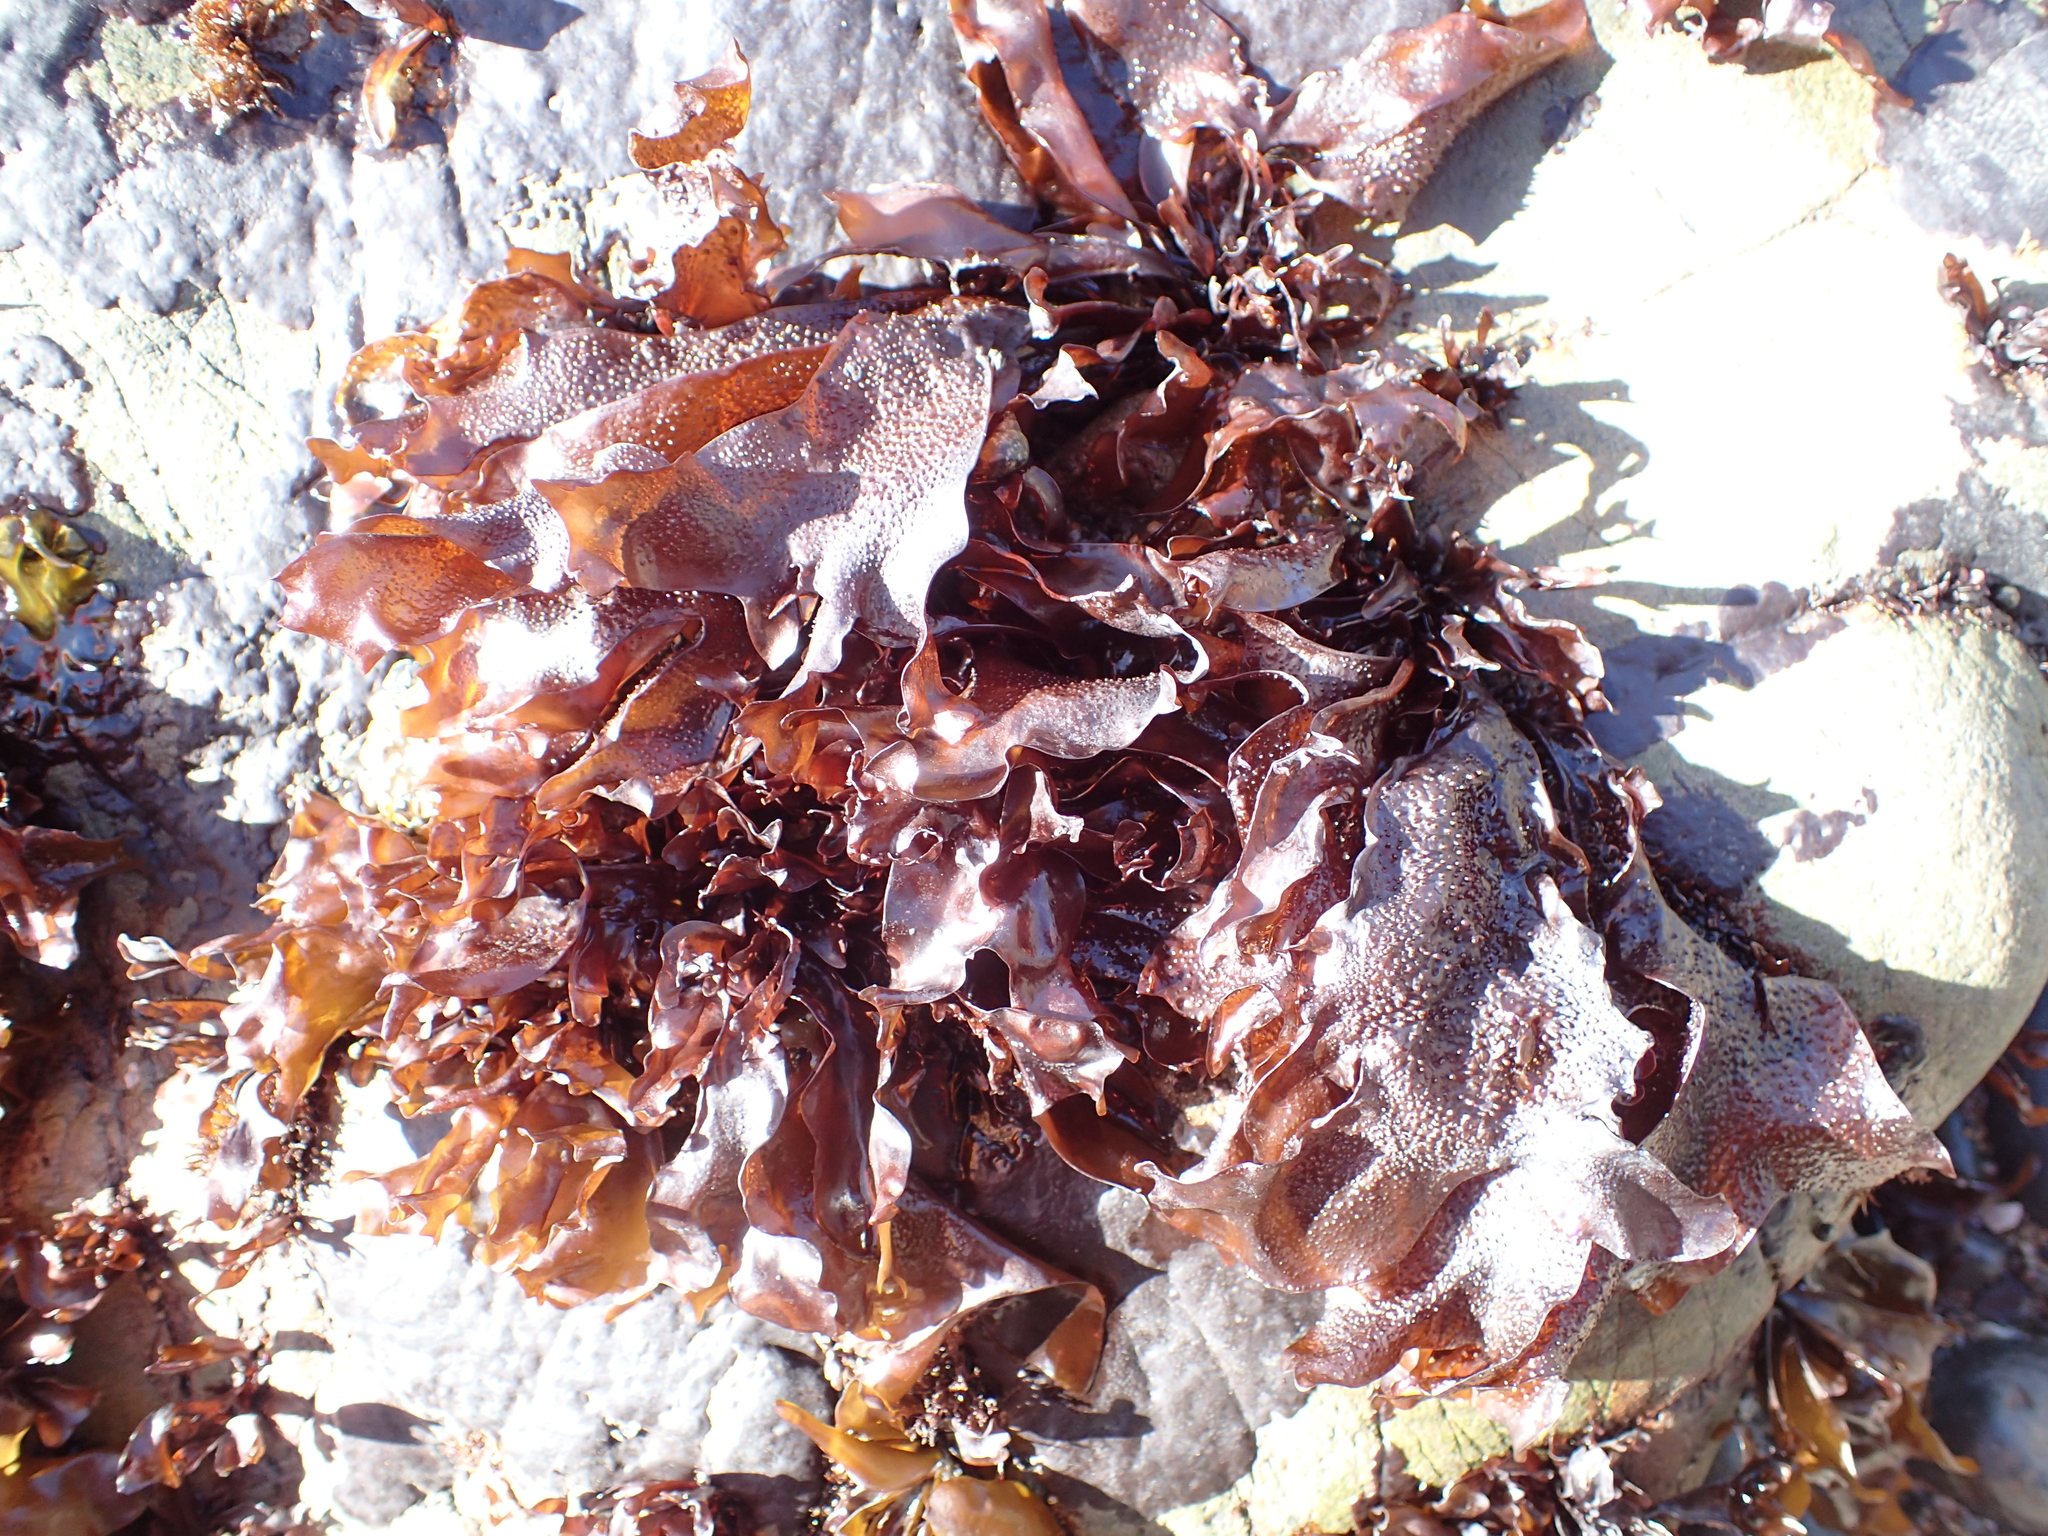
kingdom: Plantae
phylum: Rhodophyta
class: Florideophyceae
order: Gigartinales
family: Phyllophoraceae
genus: Mastocarpus
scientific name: Mastocarpus papillatus
